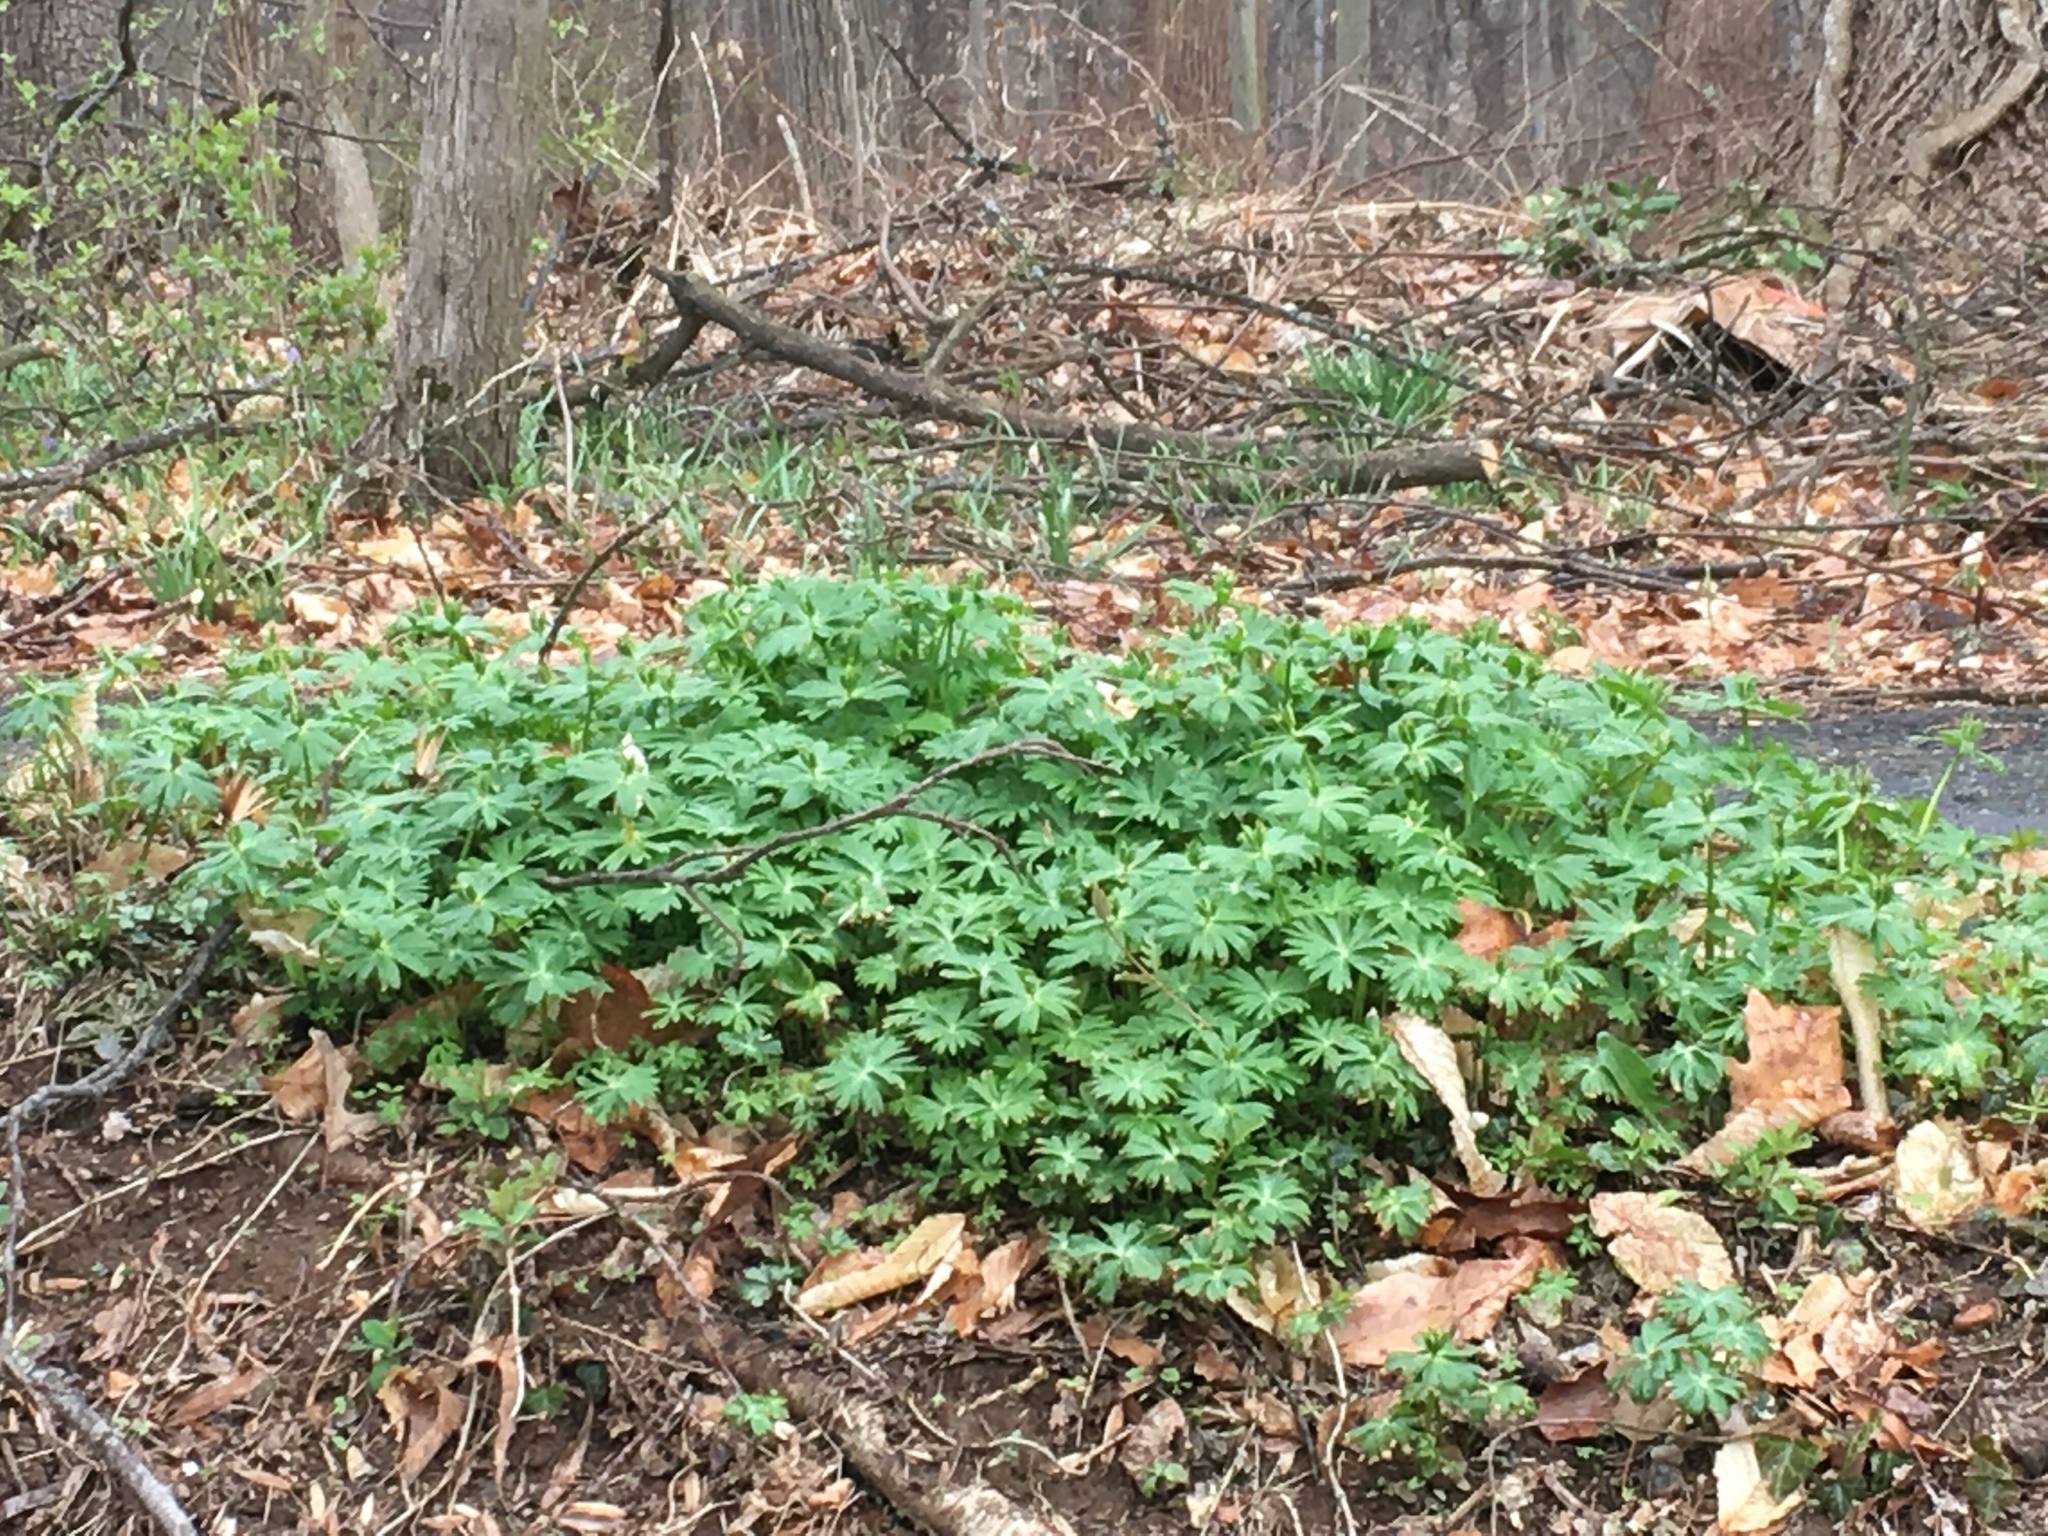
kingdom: Plantae
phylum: Tracheophyta
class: Magnoliopsida
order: Ranunculales
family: Ranunculaceae
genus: Eranthis
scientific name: Eranthis hyemalis
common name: Winter aconite
